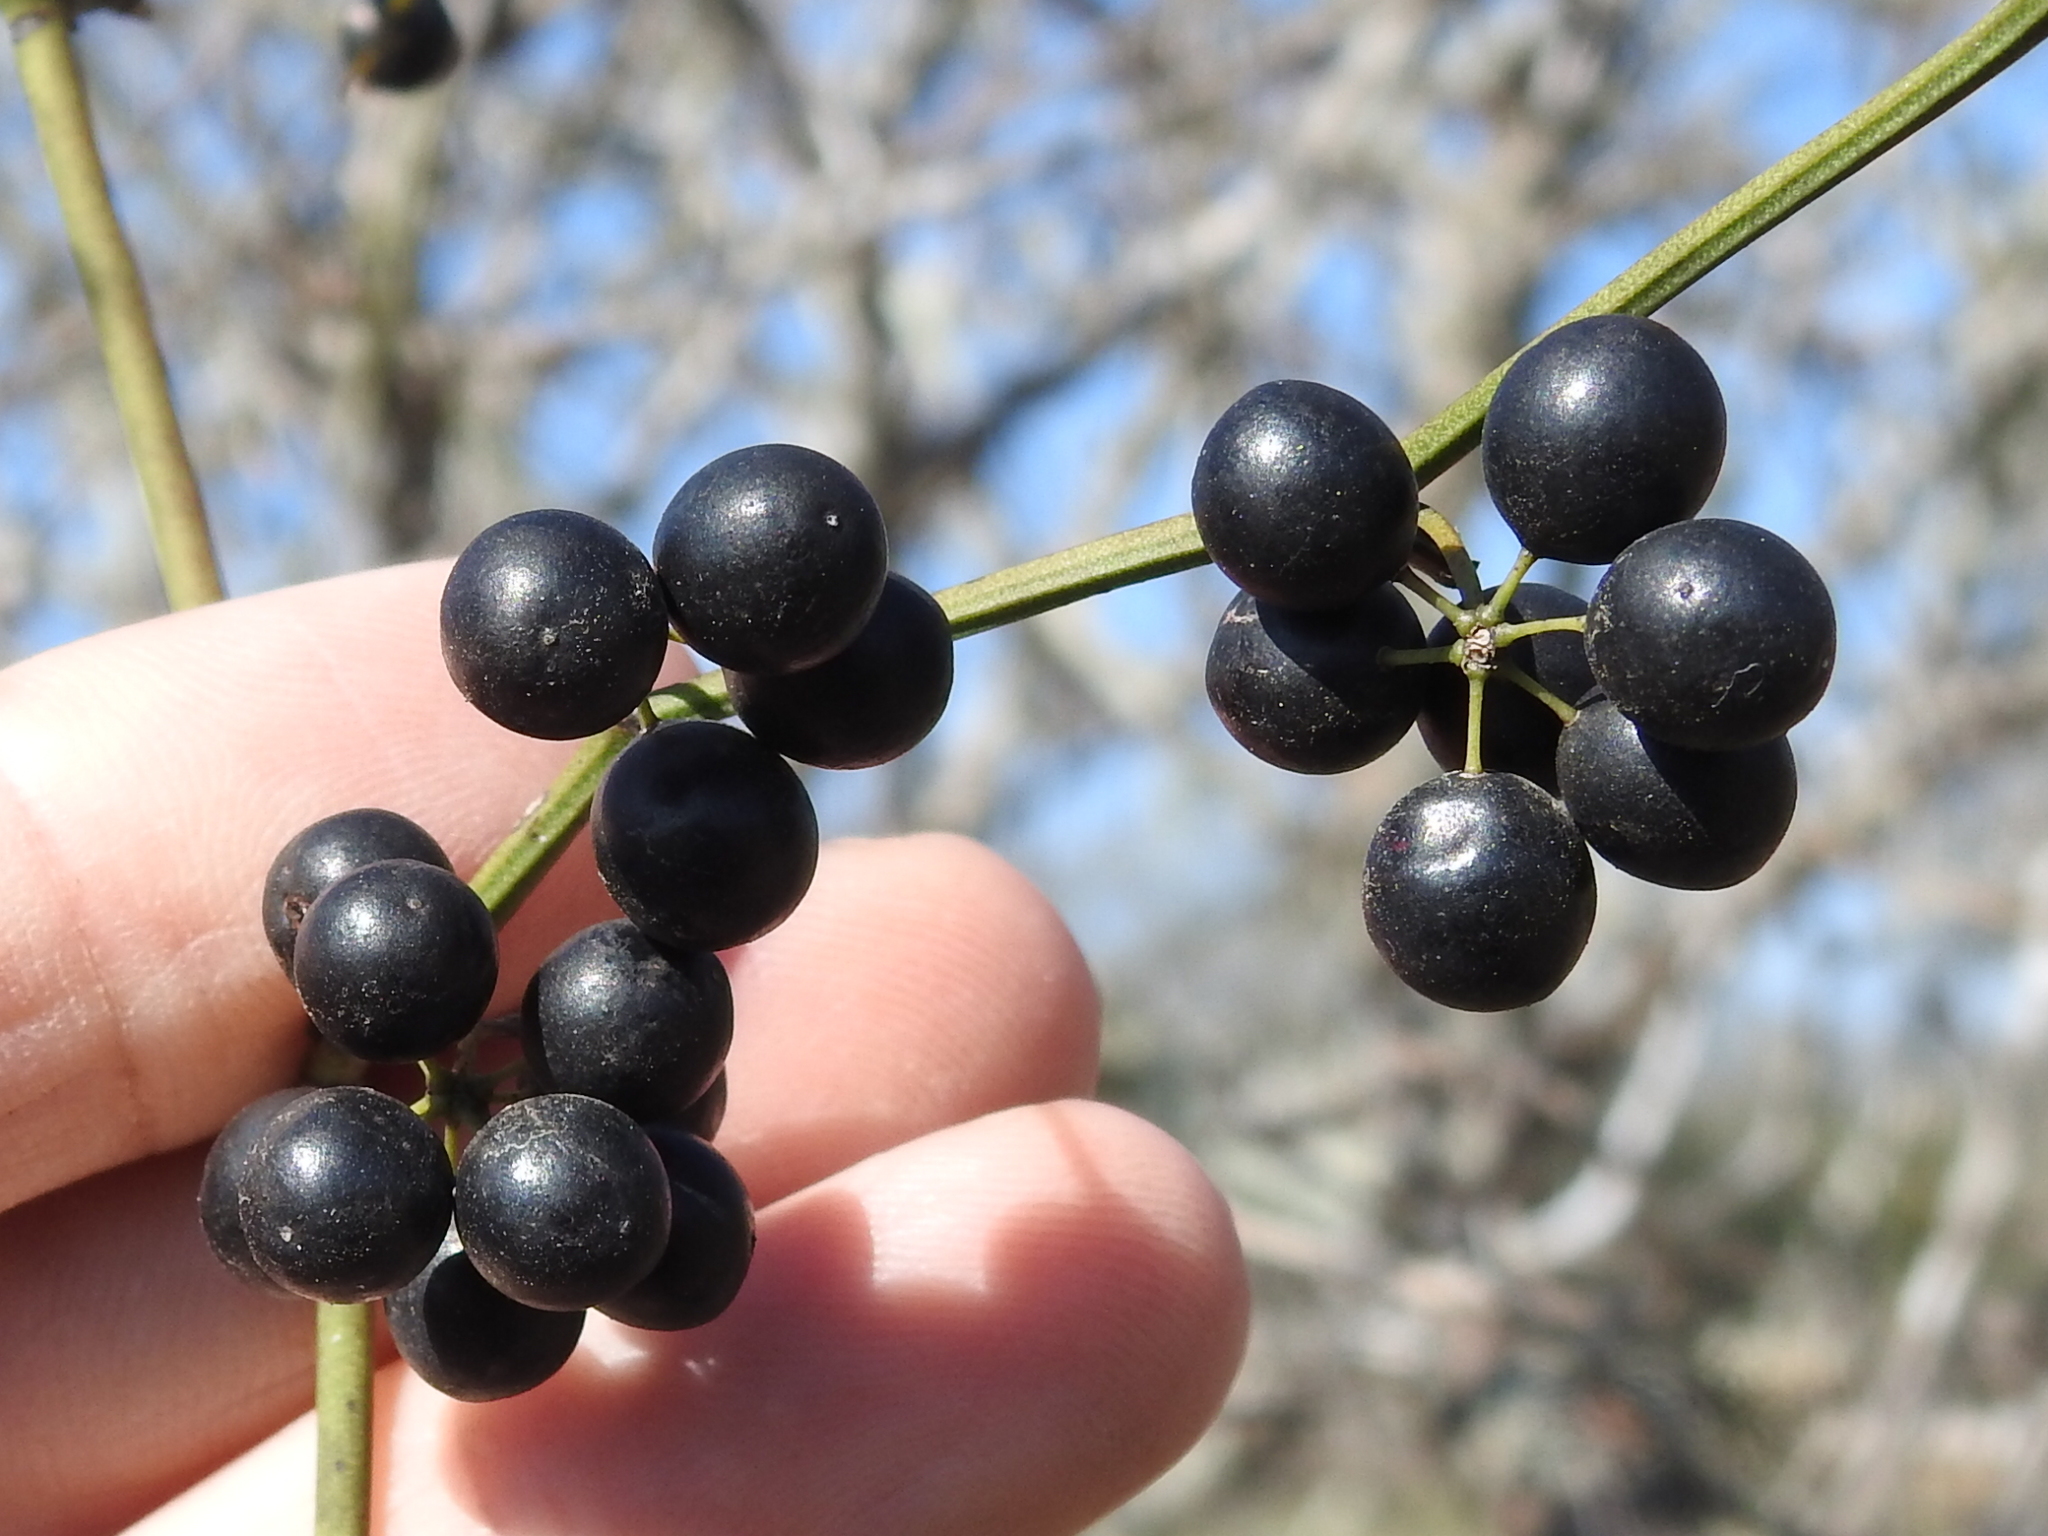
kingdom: Plantae
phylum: Tracheophyta
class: Liliopsida
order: Liliales
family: Smilacaceae
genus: Smilax
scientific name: Smilax bona-nox
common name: Catbrier
